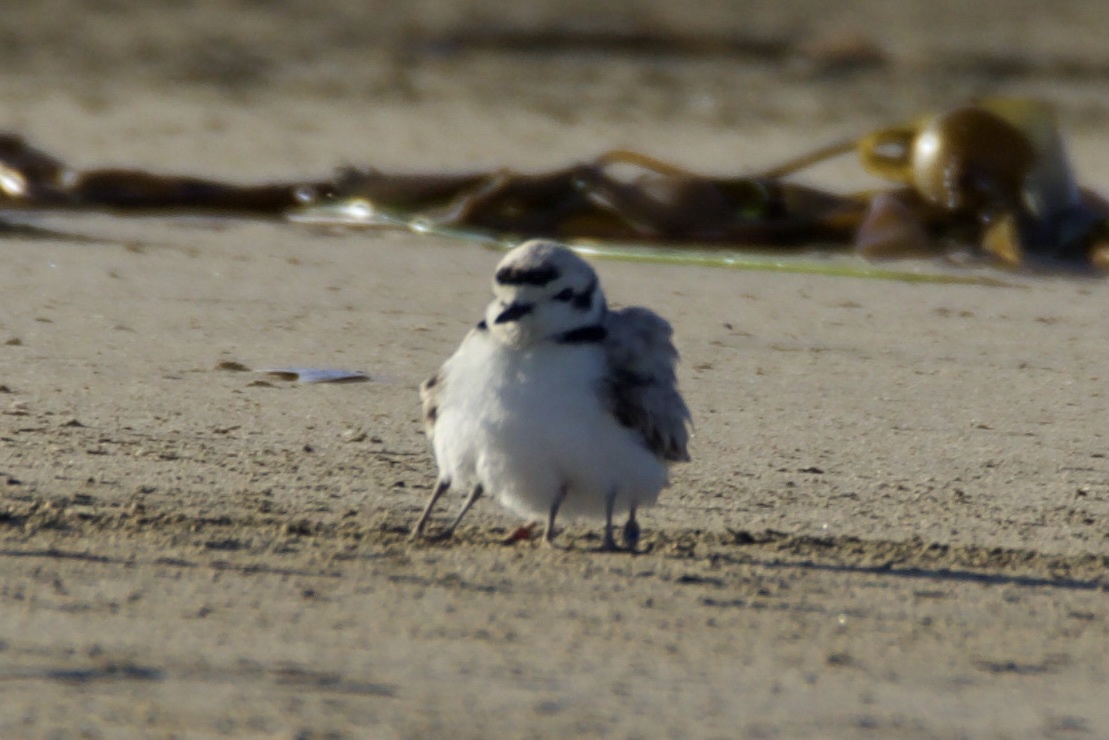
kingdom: Animalia
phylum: Chordata
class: Aves
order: Charadriiformes
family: Charadriidae
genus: Anarhynchus
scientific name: Anarhynchus
